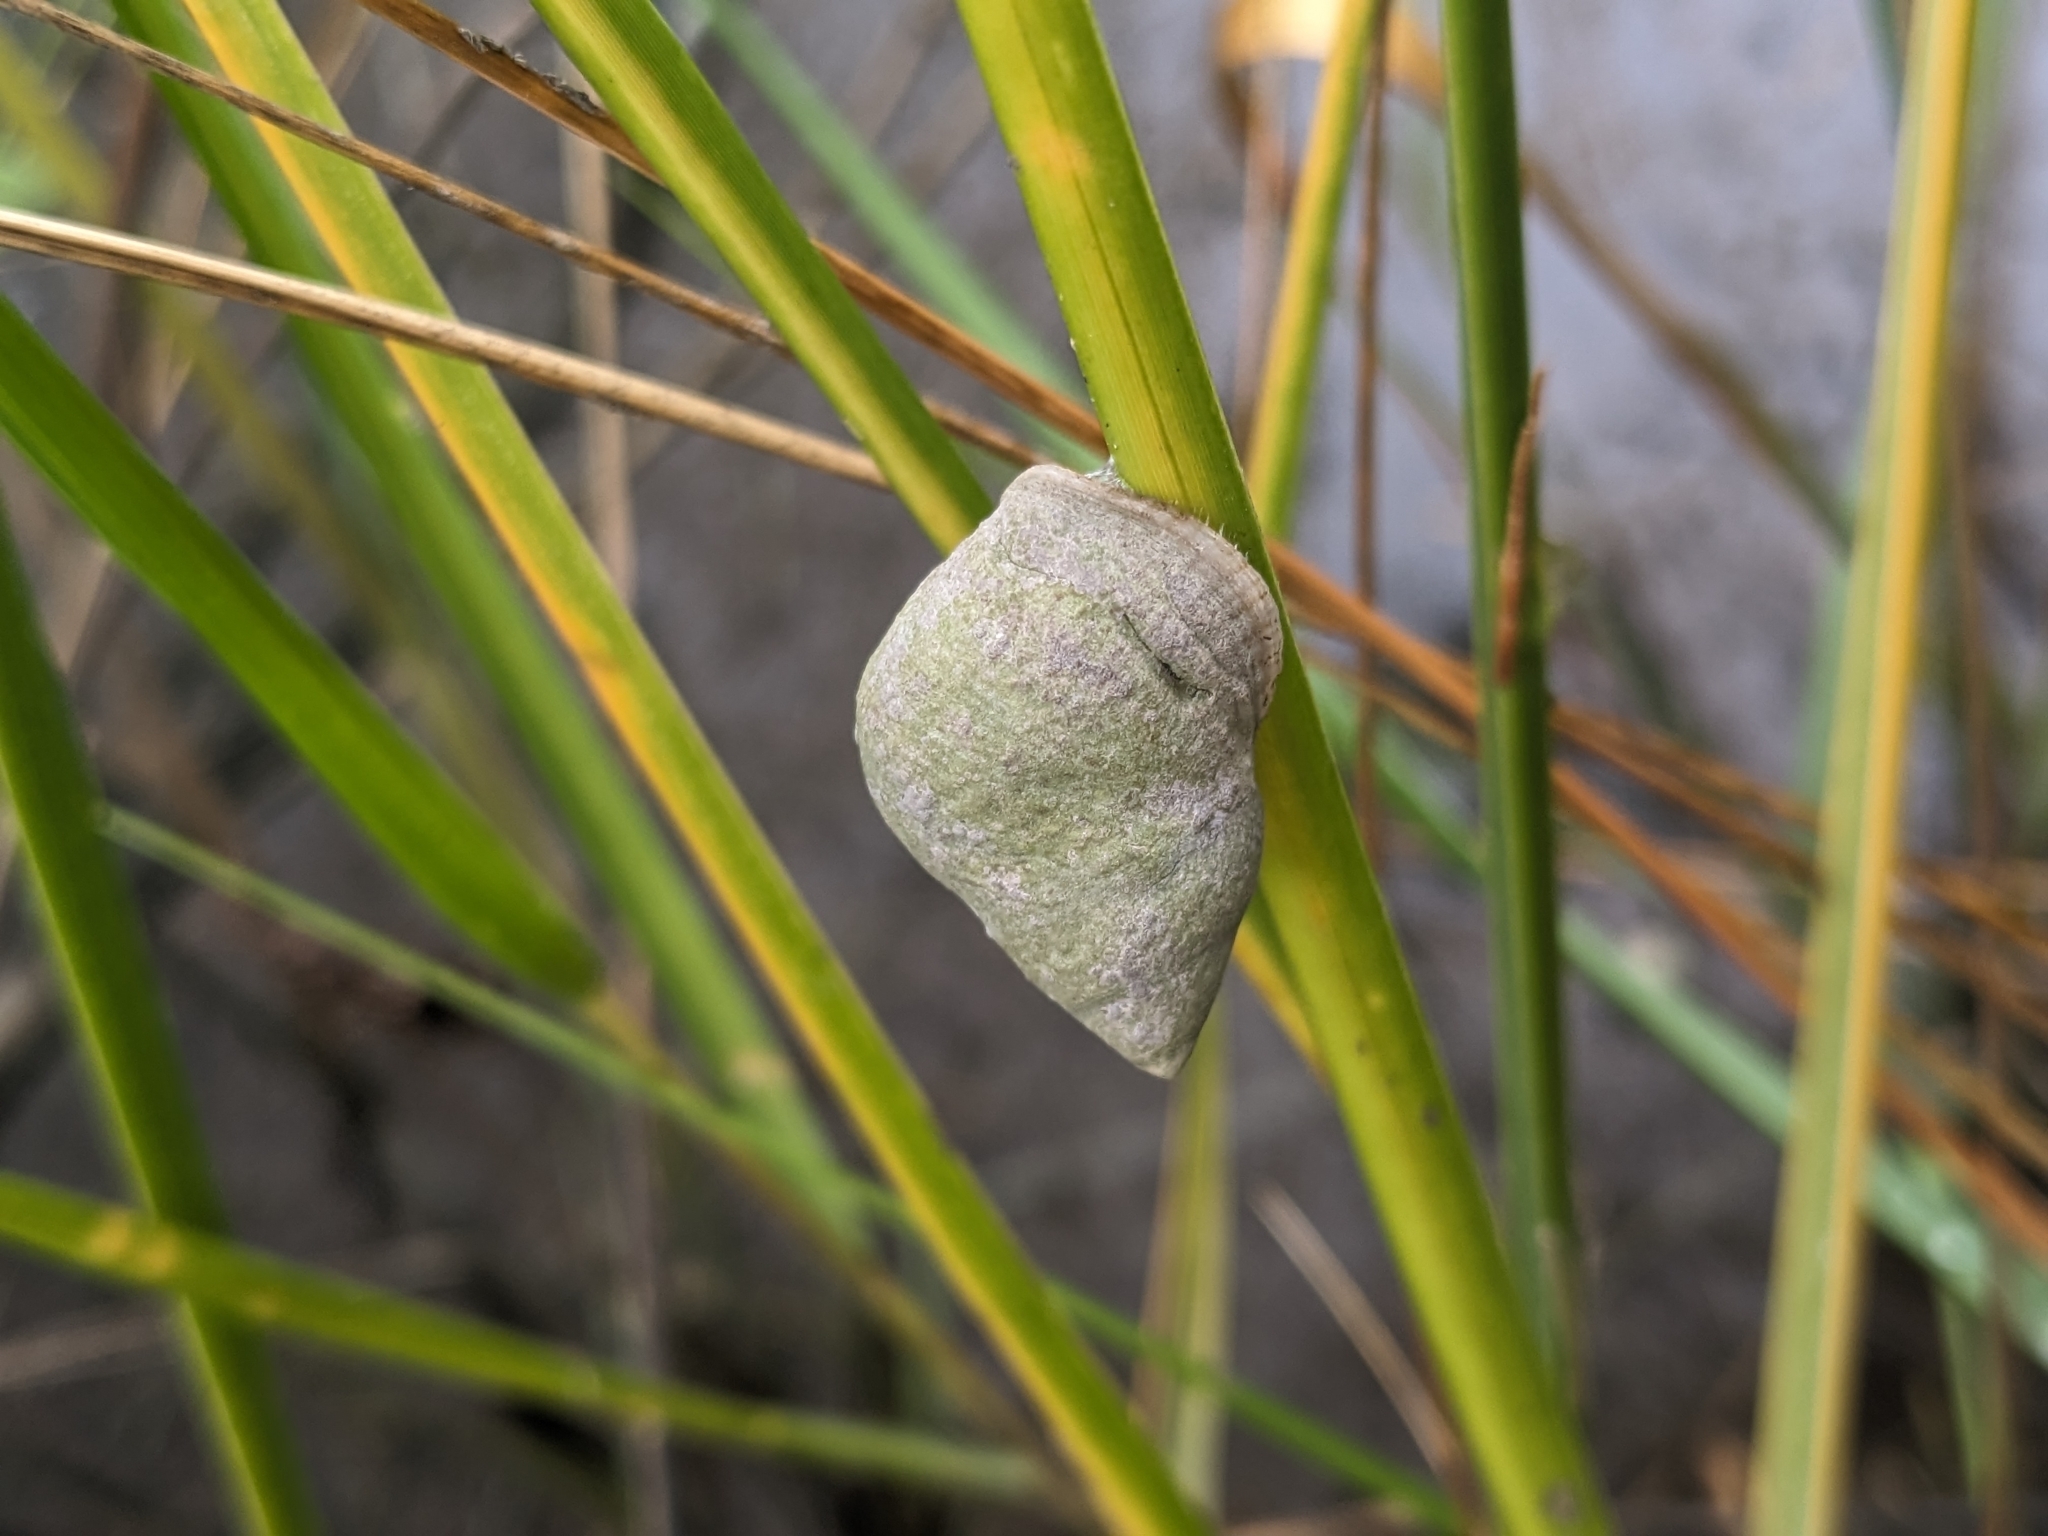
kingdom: Animalia
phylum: Mollusca
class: Gastropoda
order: Littorinimorpha
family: Littorinidae
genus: Littoraria
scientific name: Littoraria irrorata
